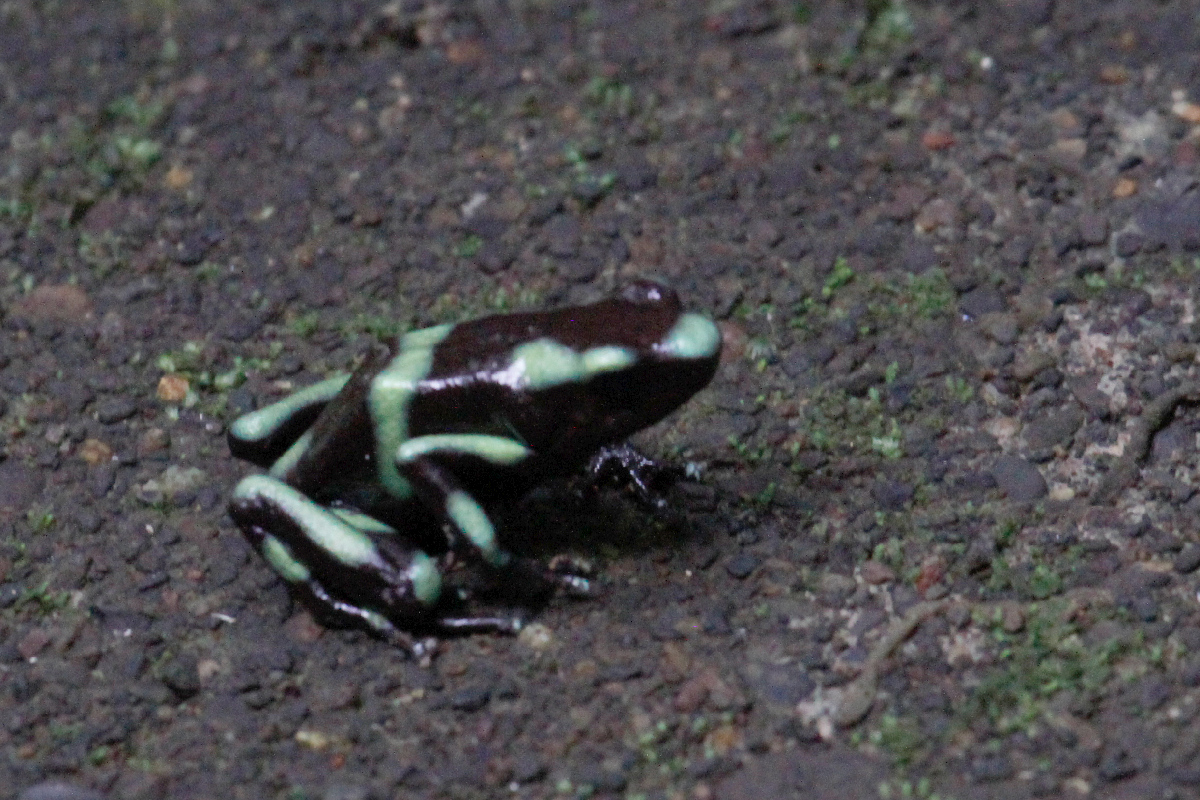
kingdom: Animalia
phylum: Chordata
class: Amphibia
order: Anura
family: Dendrobatidae
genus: Dendrobates
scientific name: Dendrobates auratus
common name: Green and black poison dart frog
